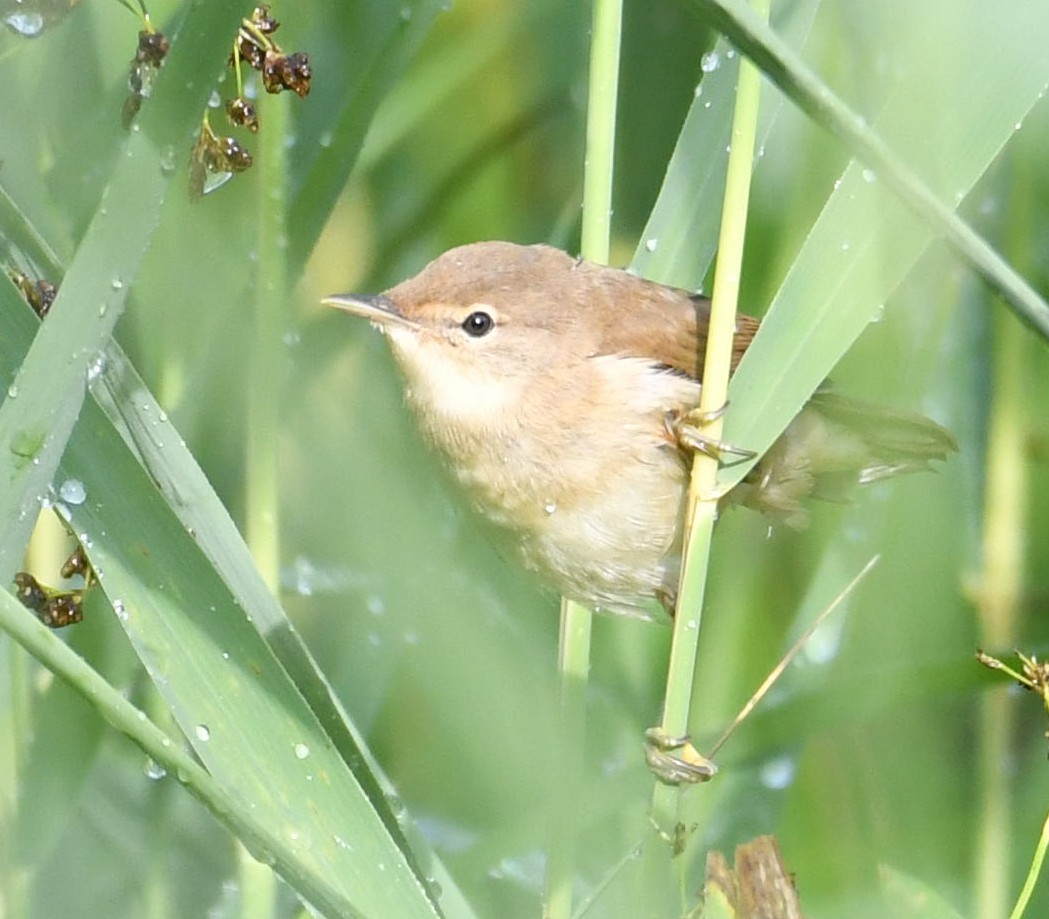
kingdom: Animalia
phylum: Chordata
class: Aves
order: Passeriformes
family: Acrocephalidae
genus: Acrocephalus
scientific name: Acrocephalus scirpaceus
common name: Eurasian reed warbler
